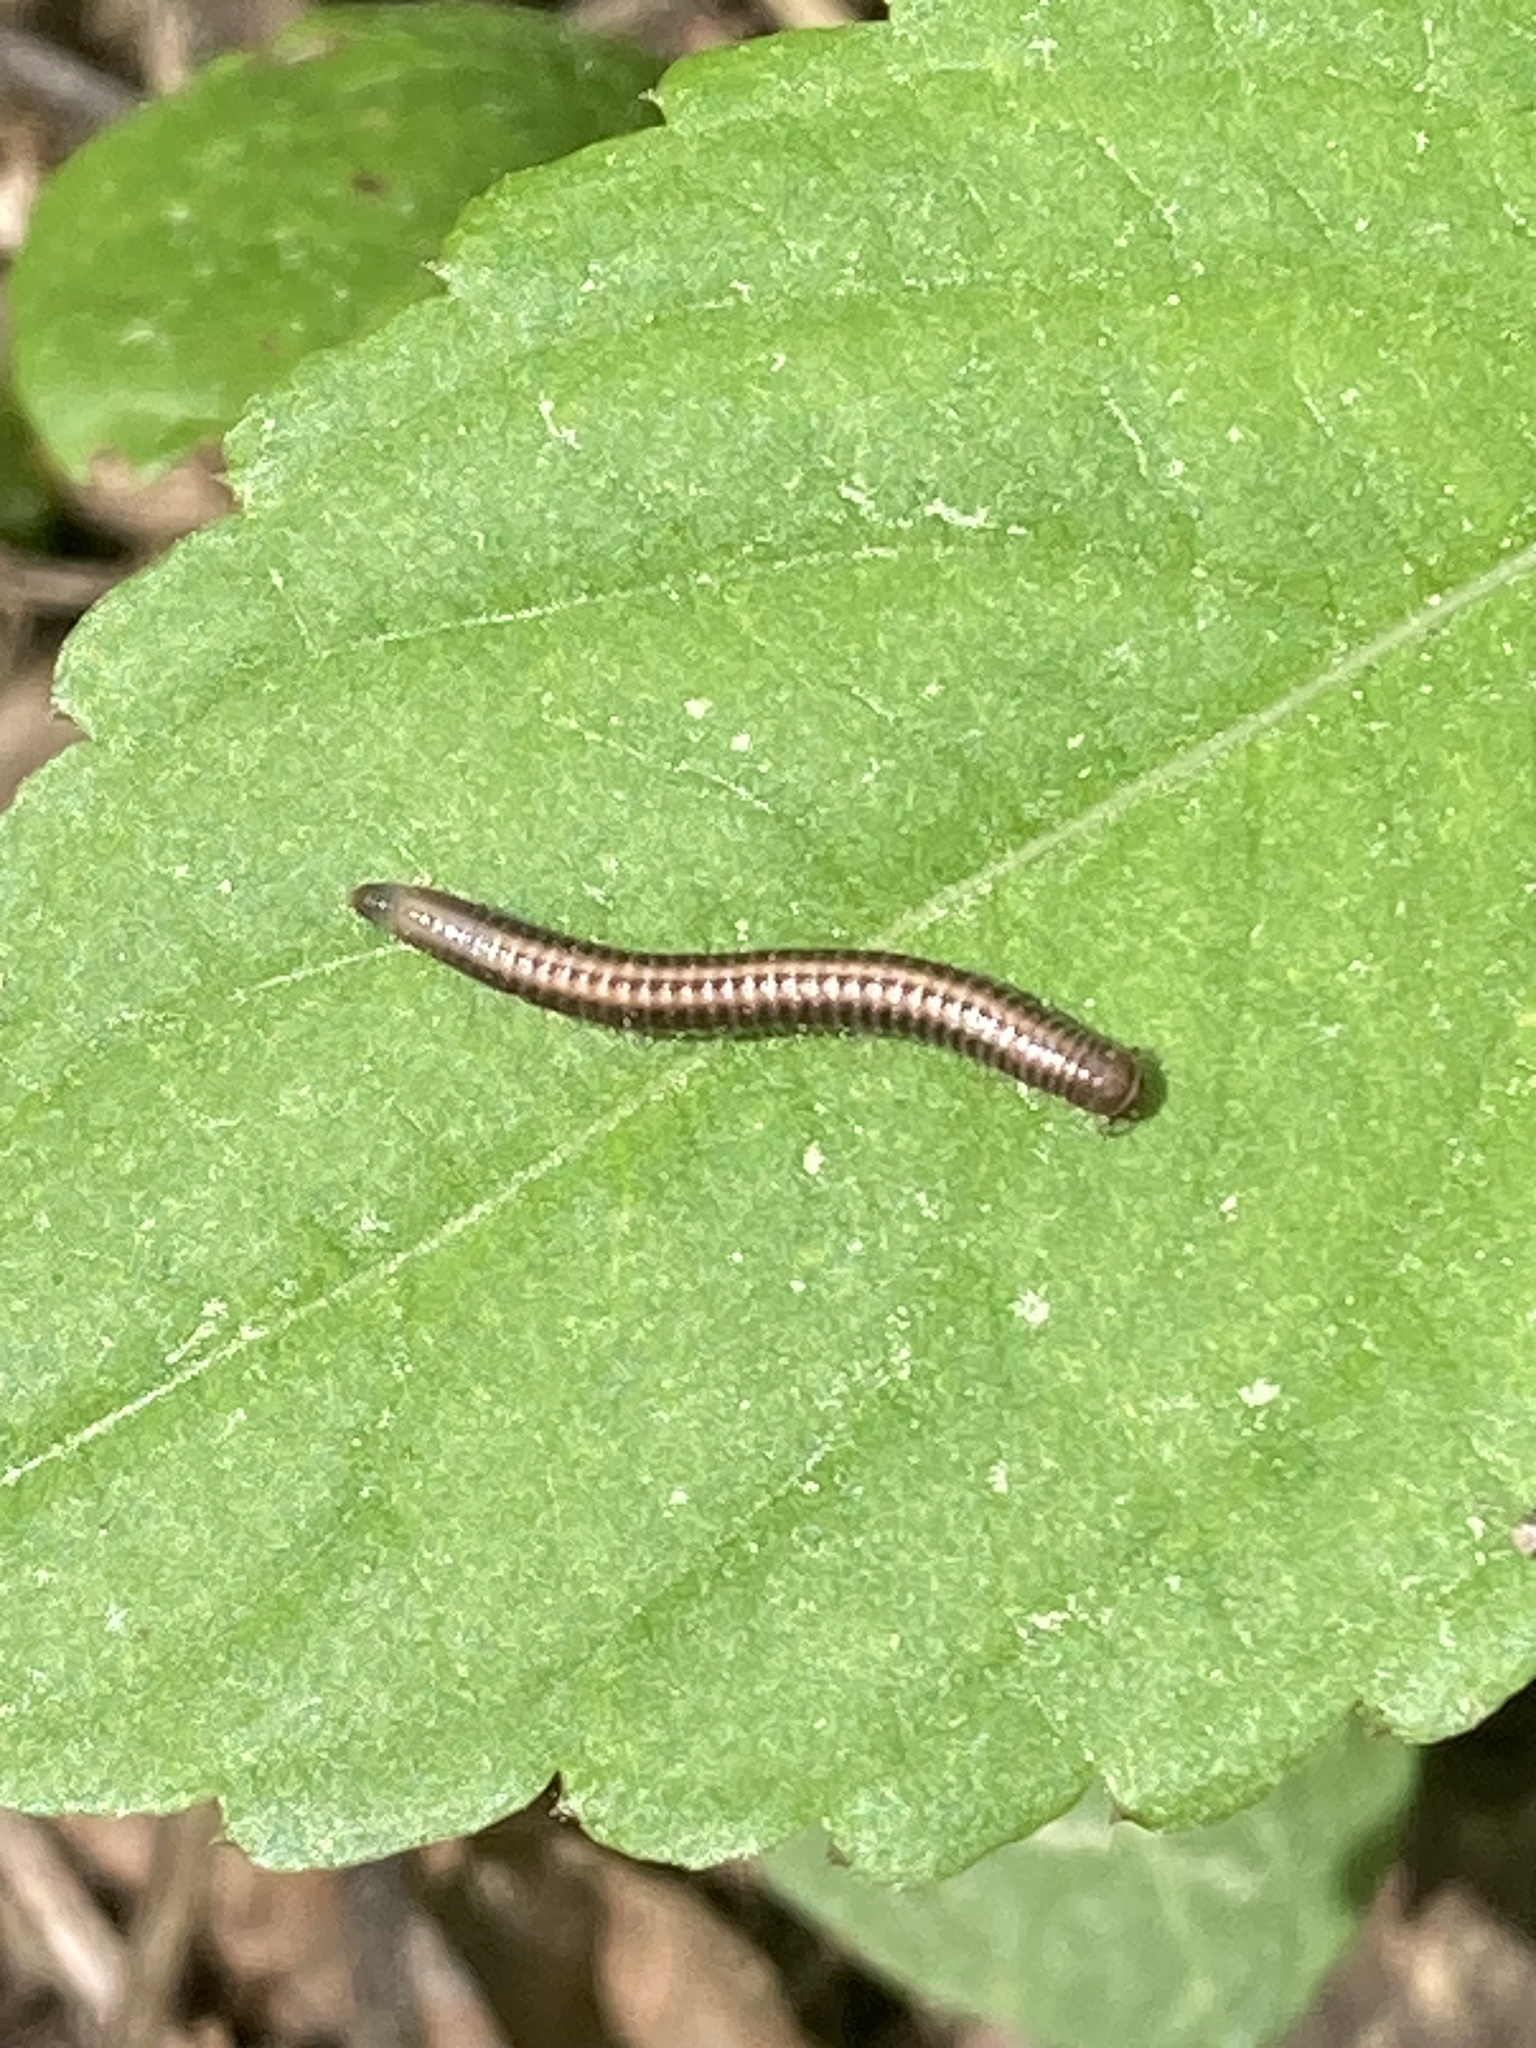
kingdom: Animalia
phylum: Arthropoda
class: Diplopoda
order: Julida
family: Julidae
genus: Ommatoiulus
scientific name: Ommatoiulus sabulosus
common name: Striped millipede
